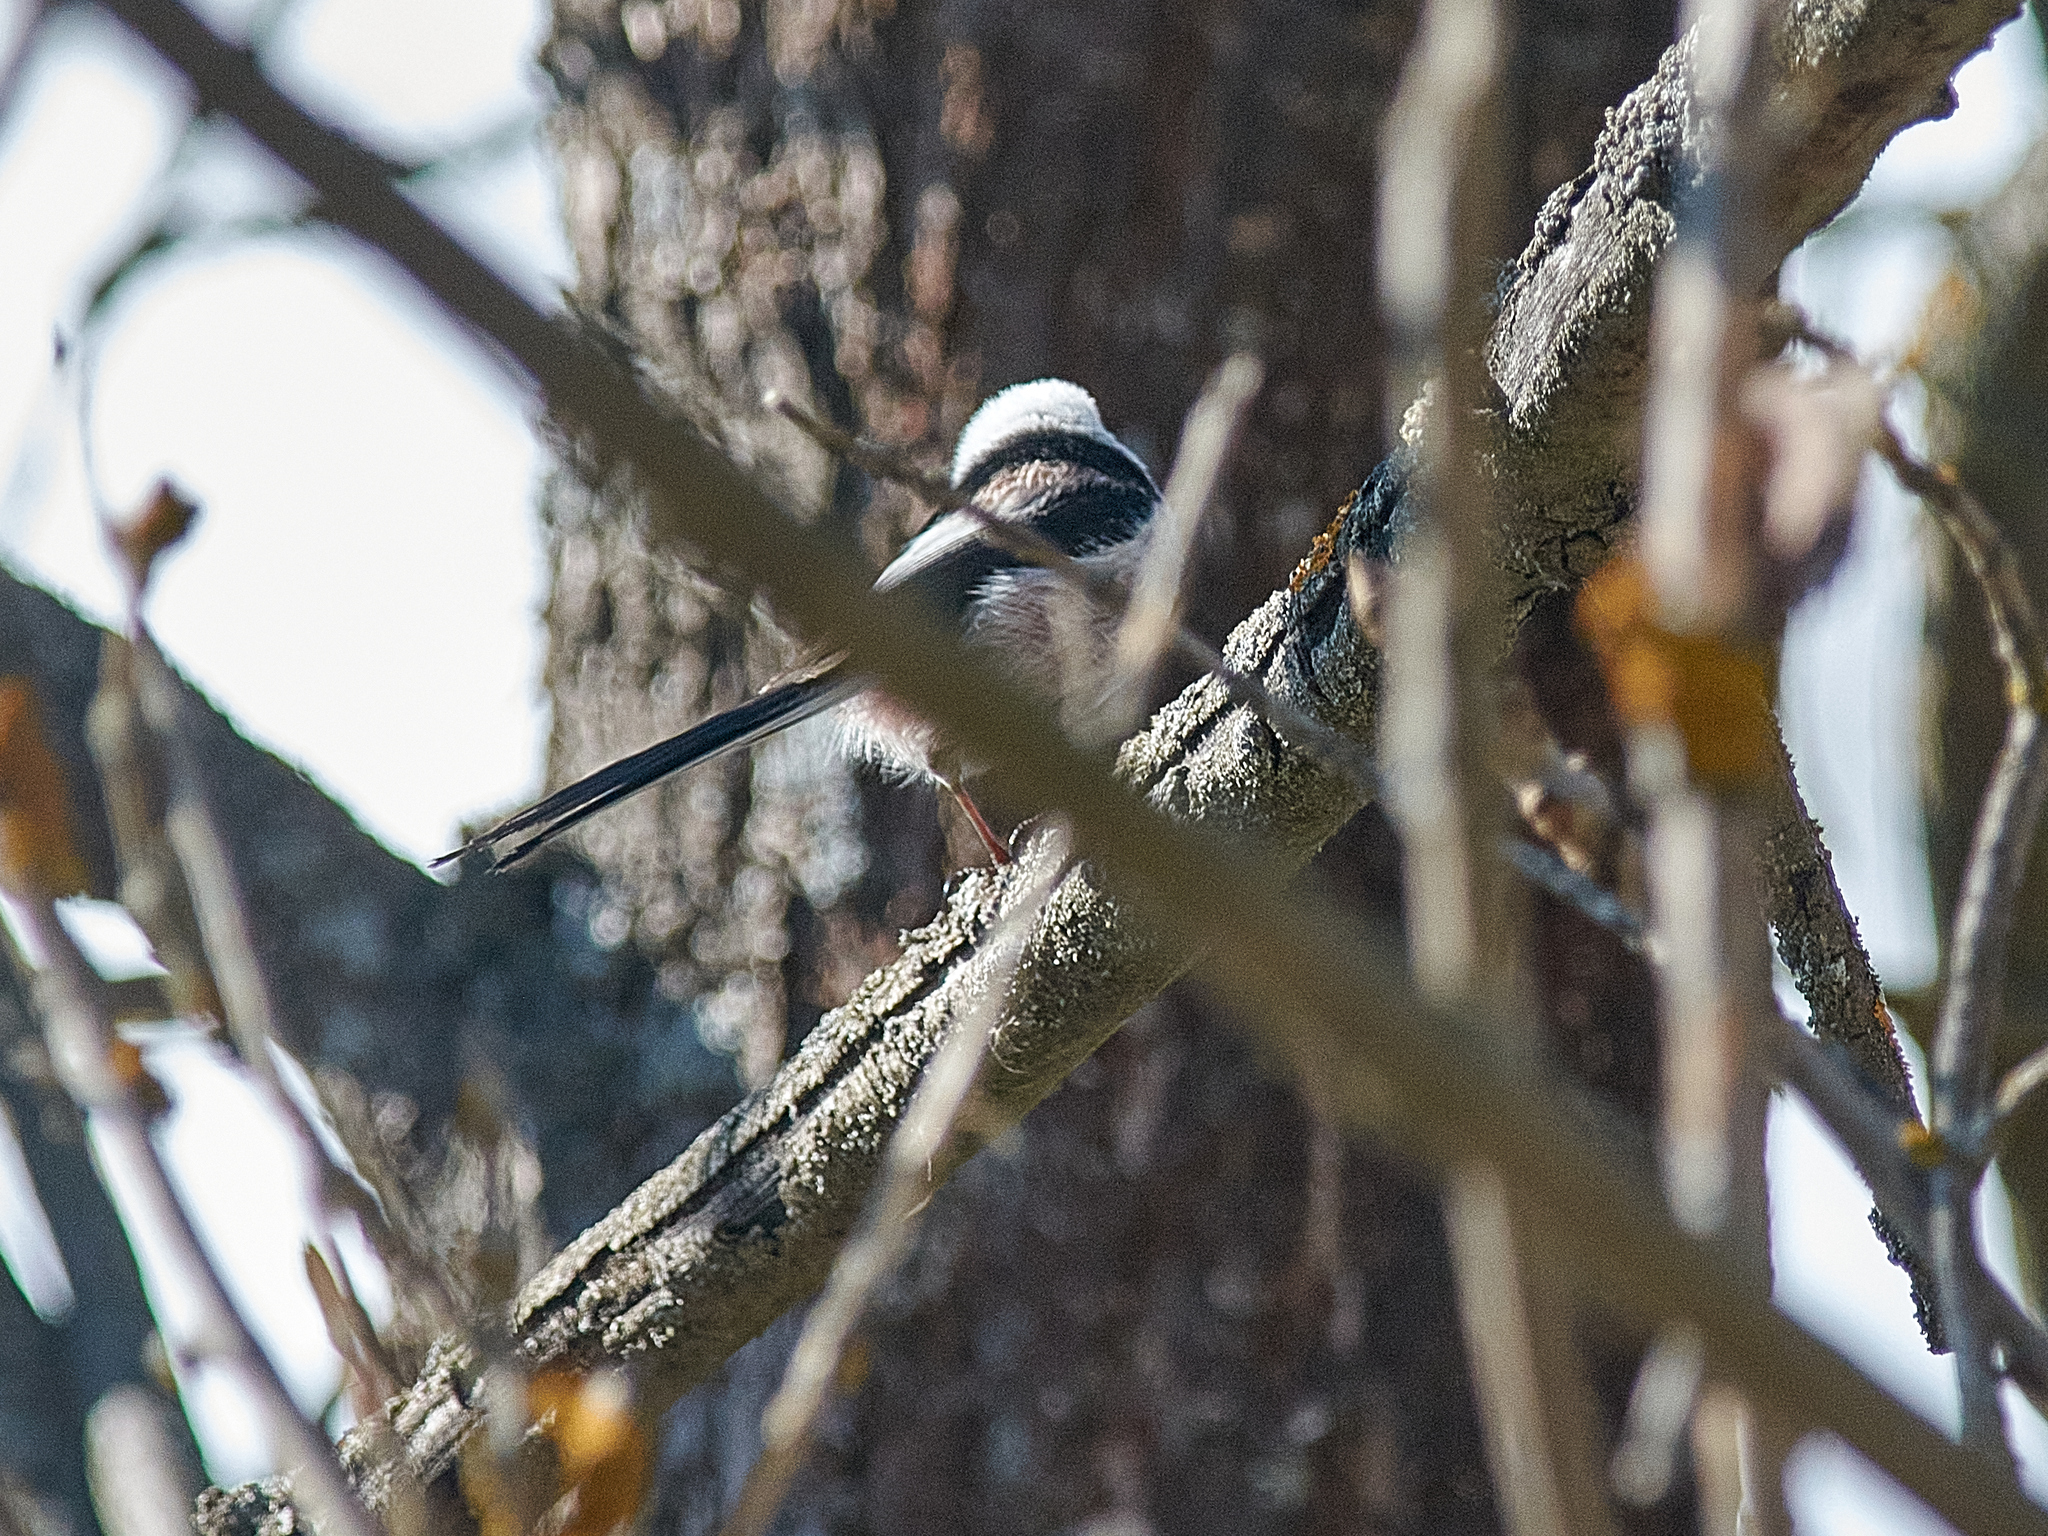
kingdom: Animalia
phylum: Chordata
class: Aves
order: Passeriformes
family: Aegithalidae
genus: Aegithalos
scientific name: Aegithalos caudatus
